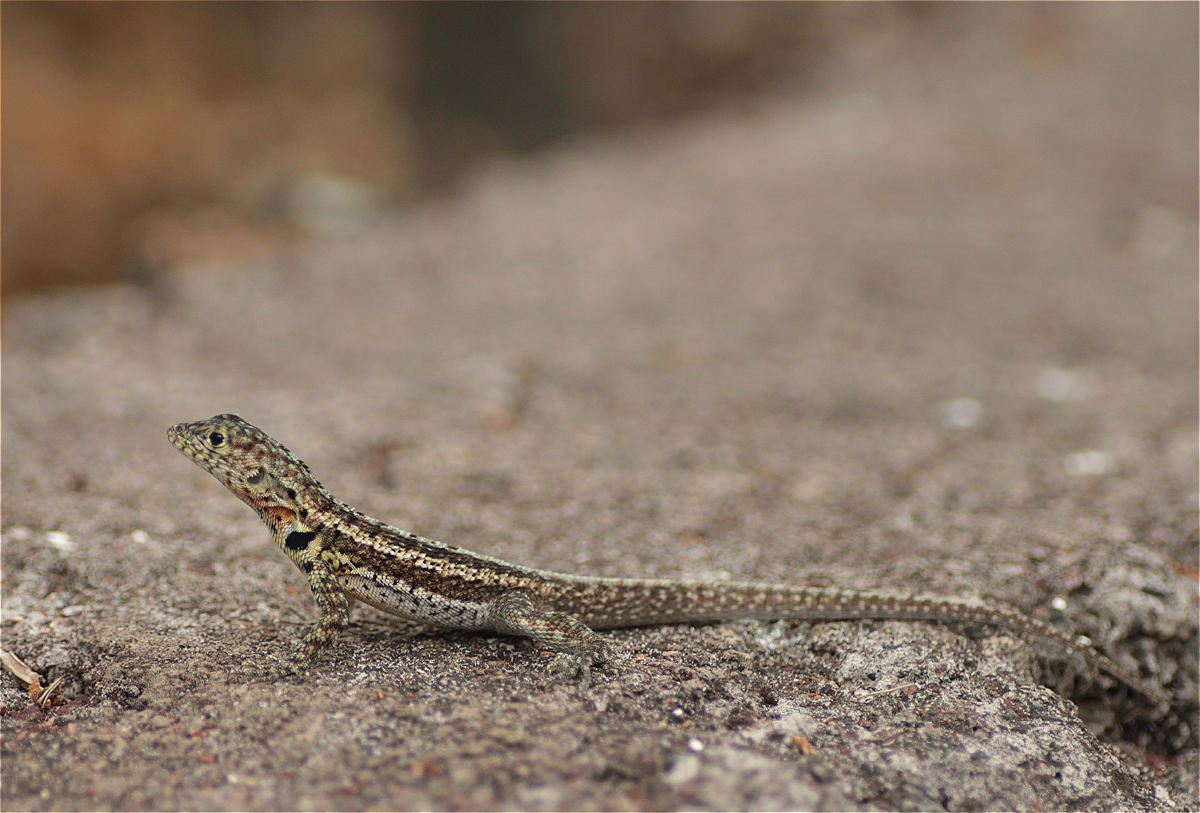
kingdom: Animalia
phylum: Chordata
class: Squamata
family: Tropiduridae
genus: Microlophus
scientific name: Microlophus indefatigabilis
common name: Galapagos lava lizard
